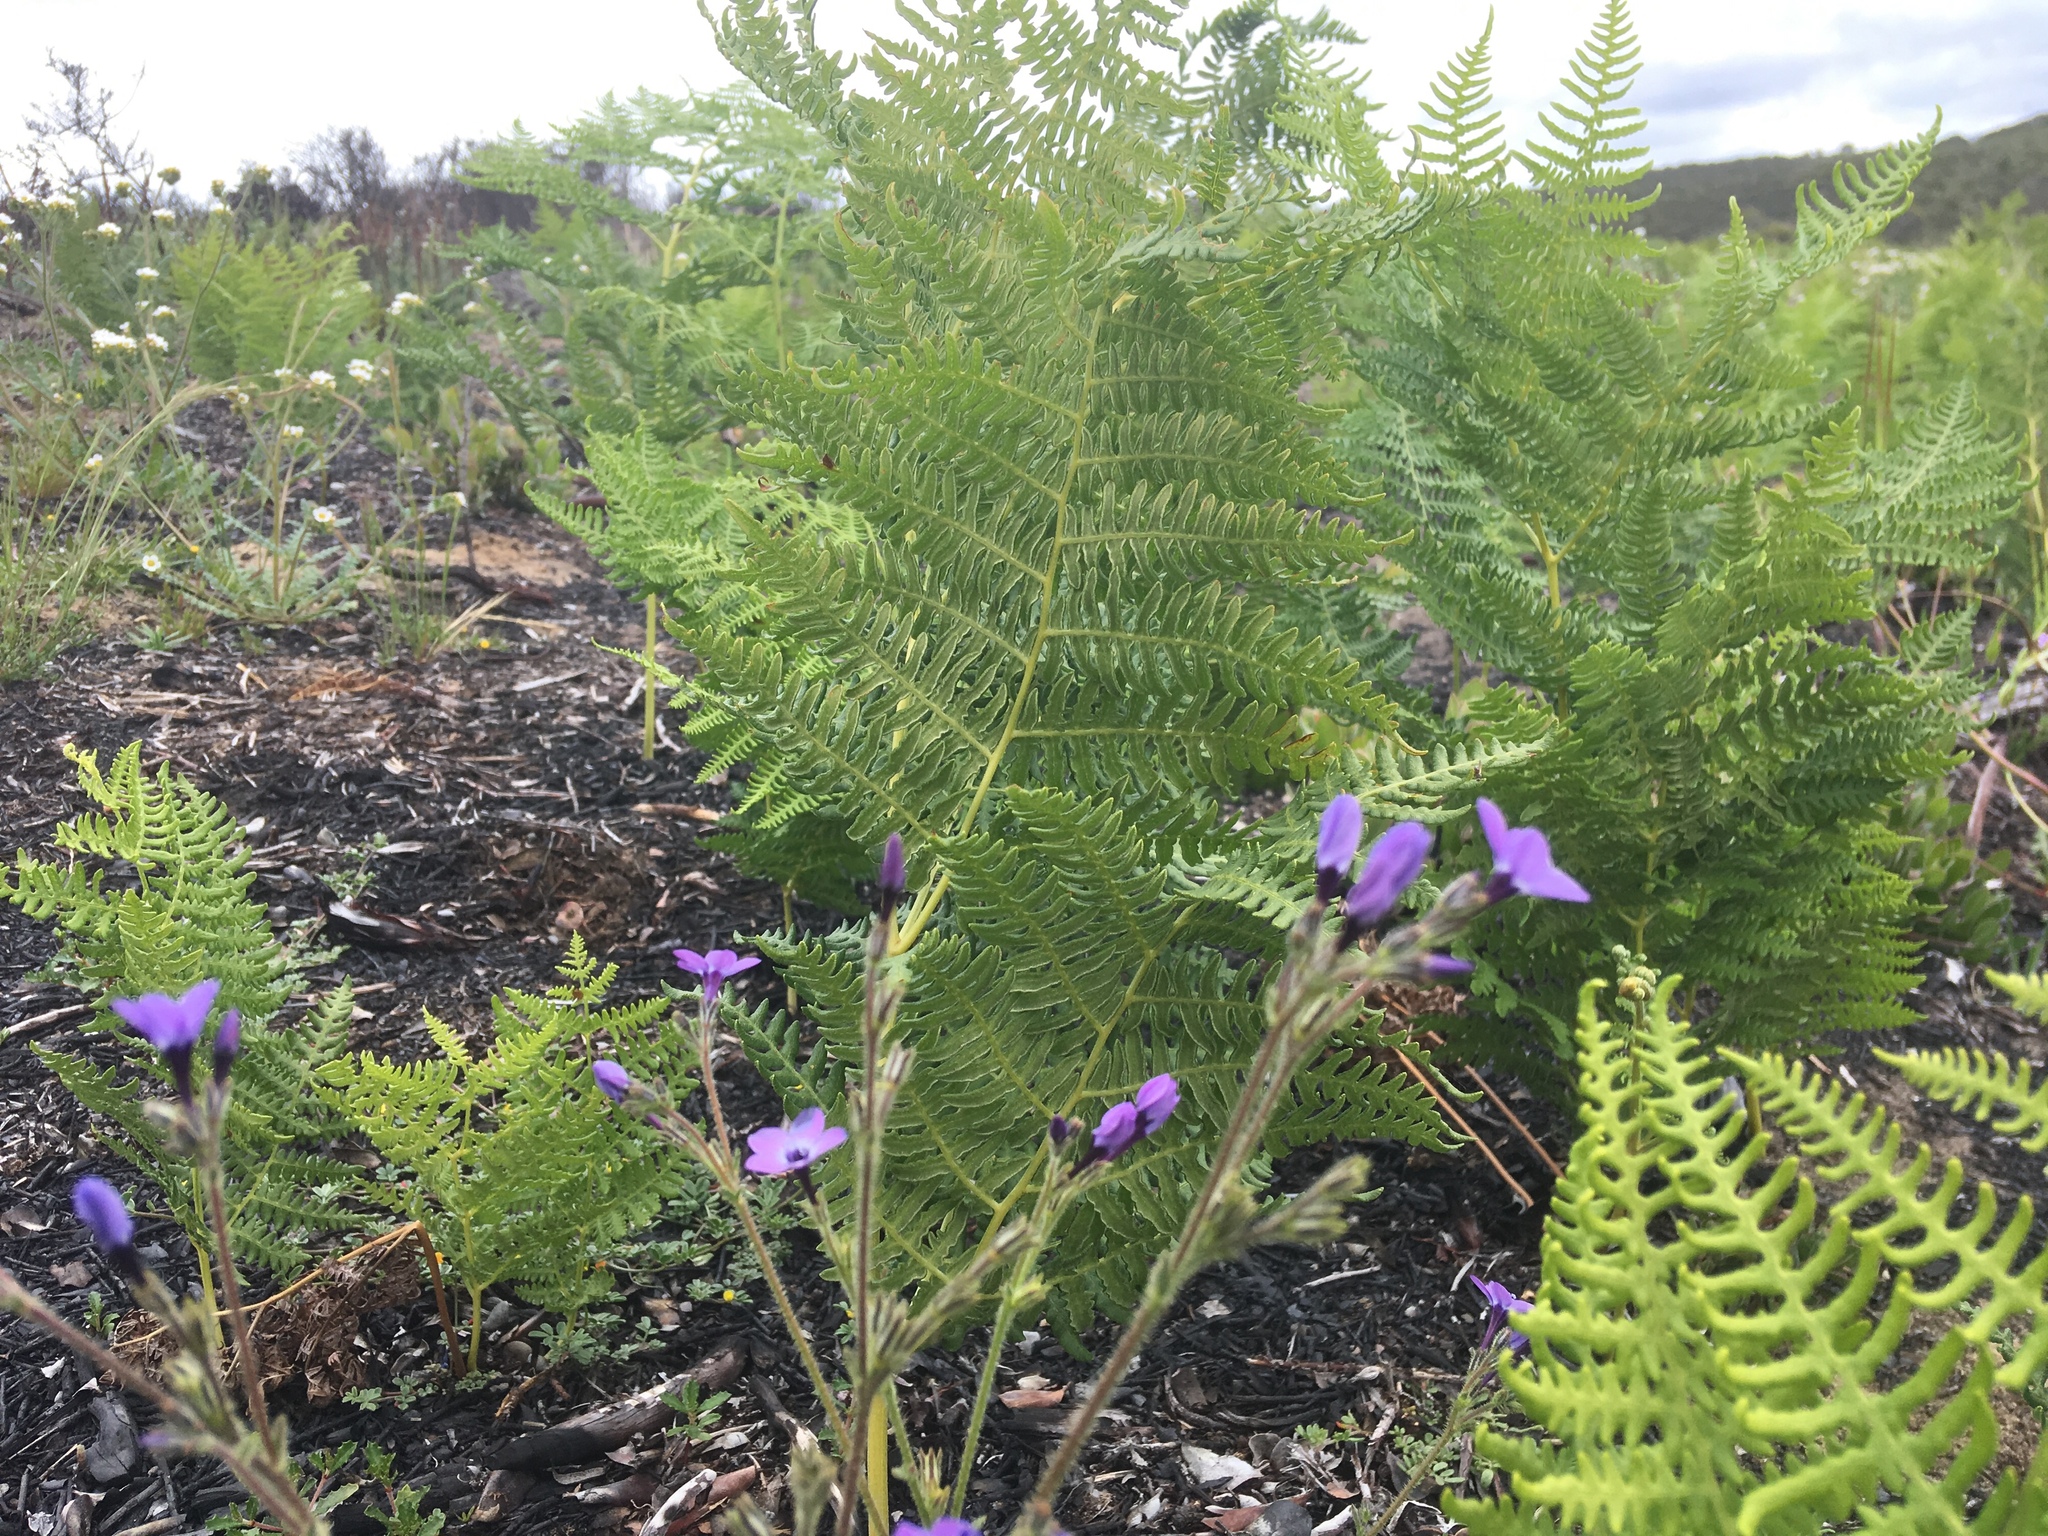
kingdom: Plantae
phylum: Tracheophyta
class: Polypodiopsida
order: Polypodiales
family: Dennstaedtiaceae
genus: Pteridium
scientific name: Pteridium aquilinum
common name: Bracken
